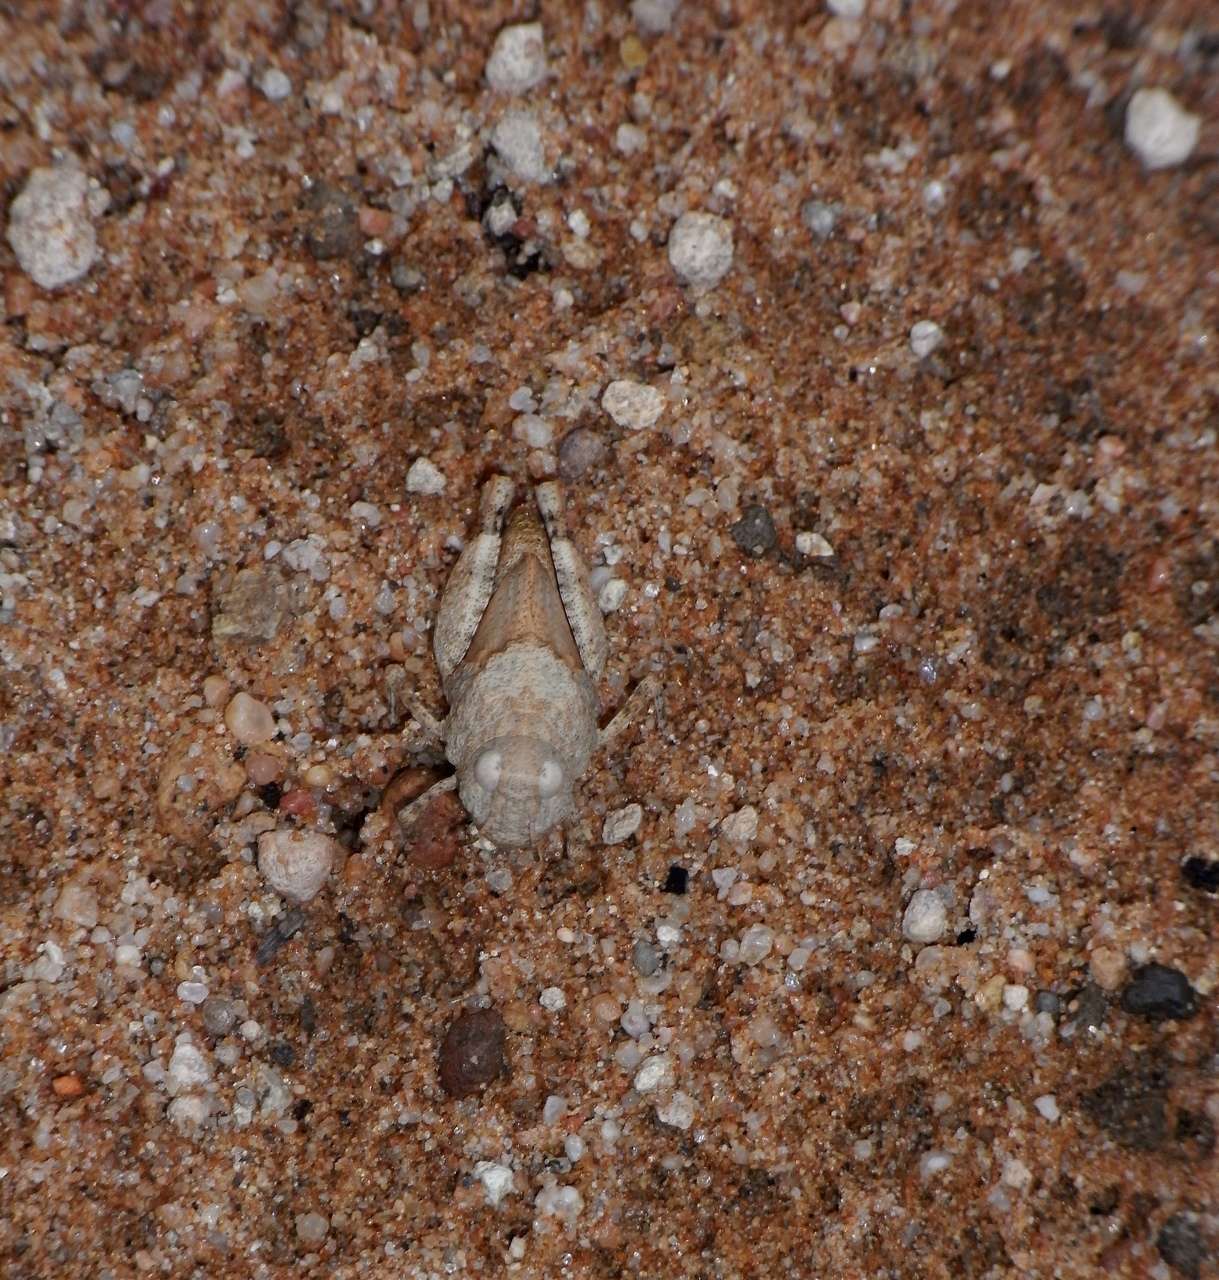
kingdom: Animalia
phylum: Arthropoda
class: Insecta
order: Orthoptera
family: Acrididae
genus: Buforania
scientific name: Buforania
